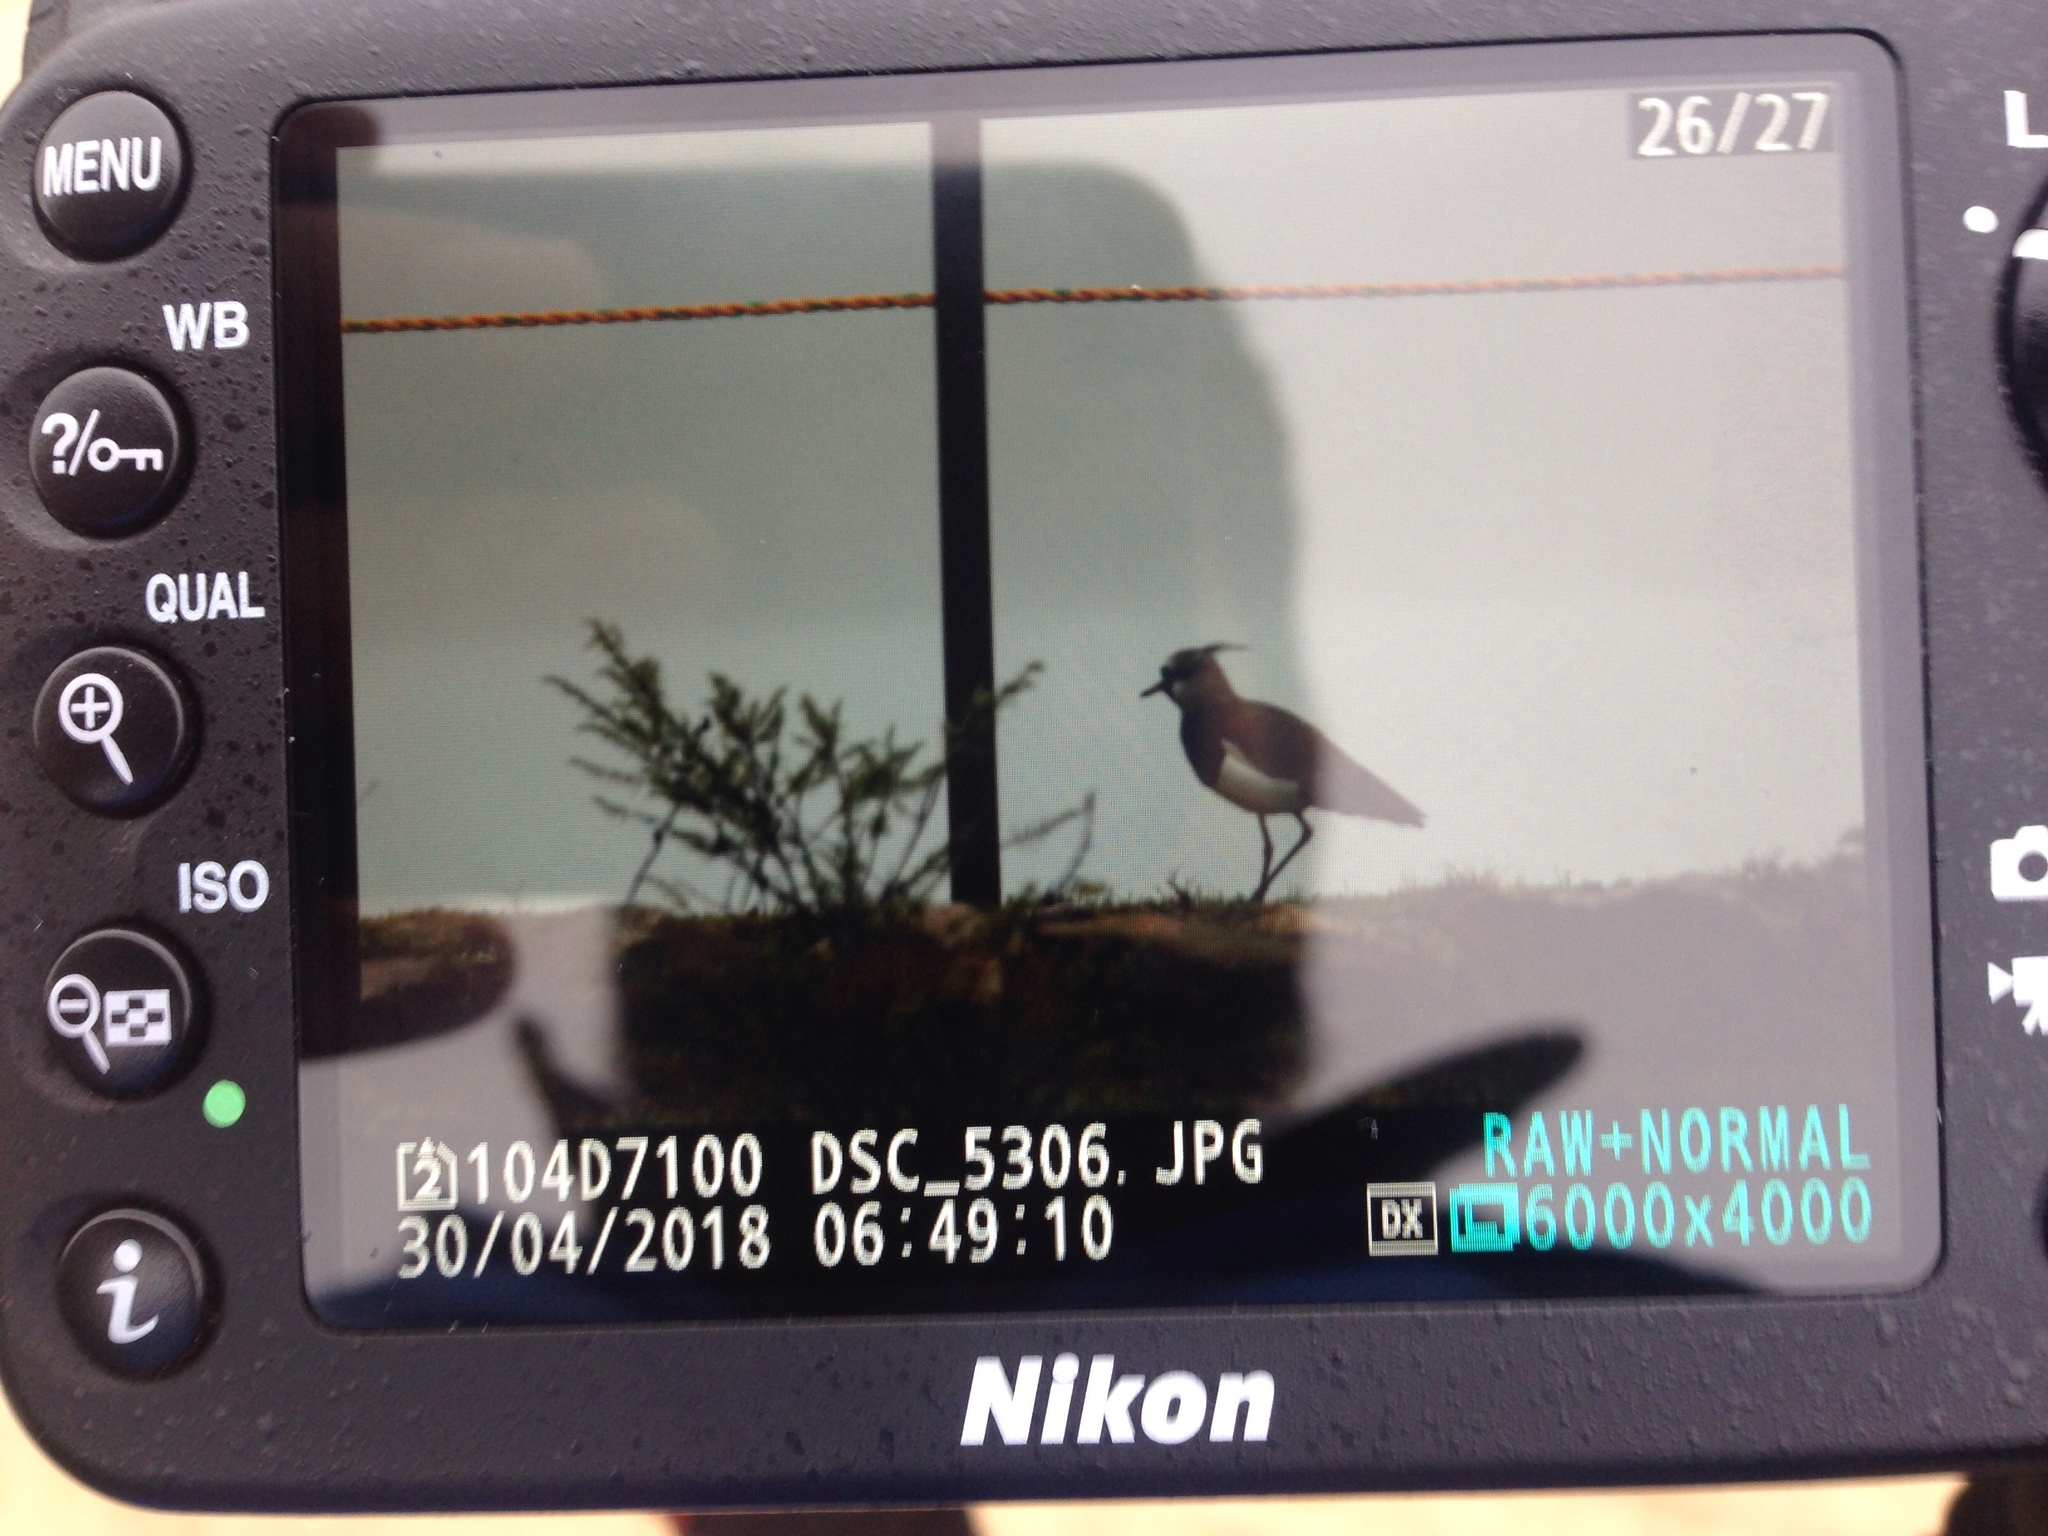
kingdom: Animalia
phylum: Chordata
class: Aves
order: Charadriiformes
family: Charadriidae
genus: Vanellus
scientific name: Vanellus chilensis
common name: Southern lapwing
